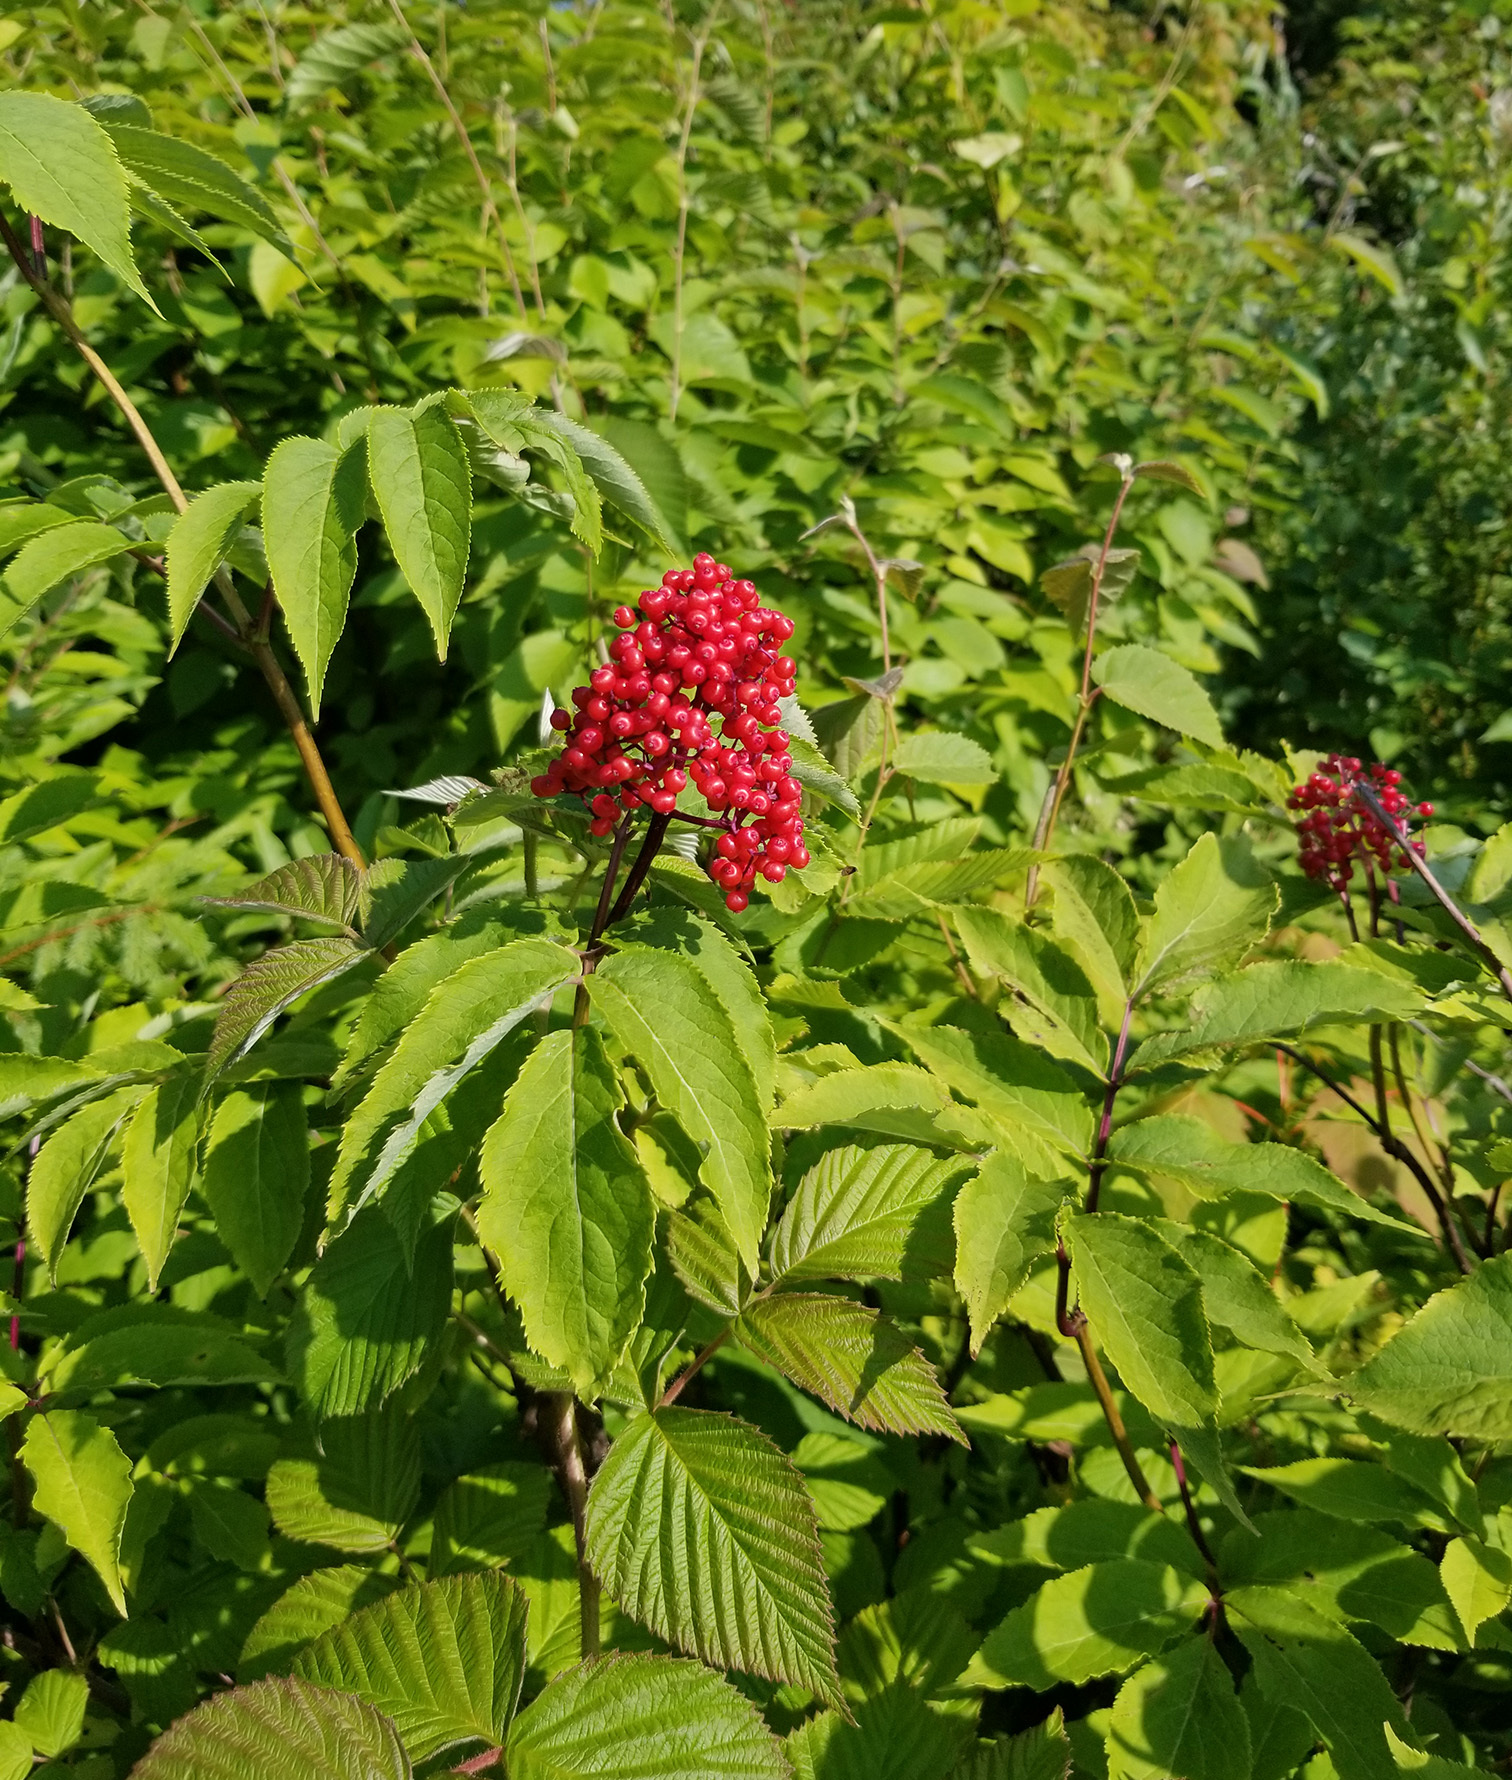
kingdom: Plantae
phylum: Tracheophyta
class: Magnoliopsida
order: Dipsacales
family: Viburnaceae
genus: Sambucus
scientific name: Sambucus racemosa
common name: Red-berried elder
